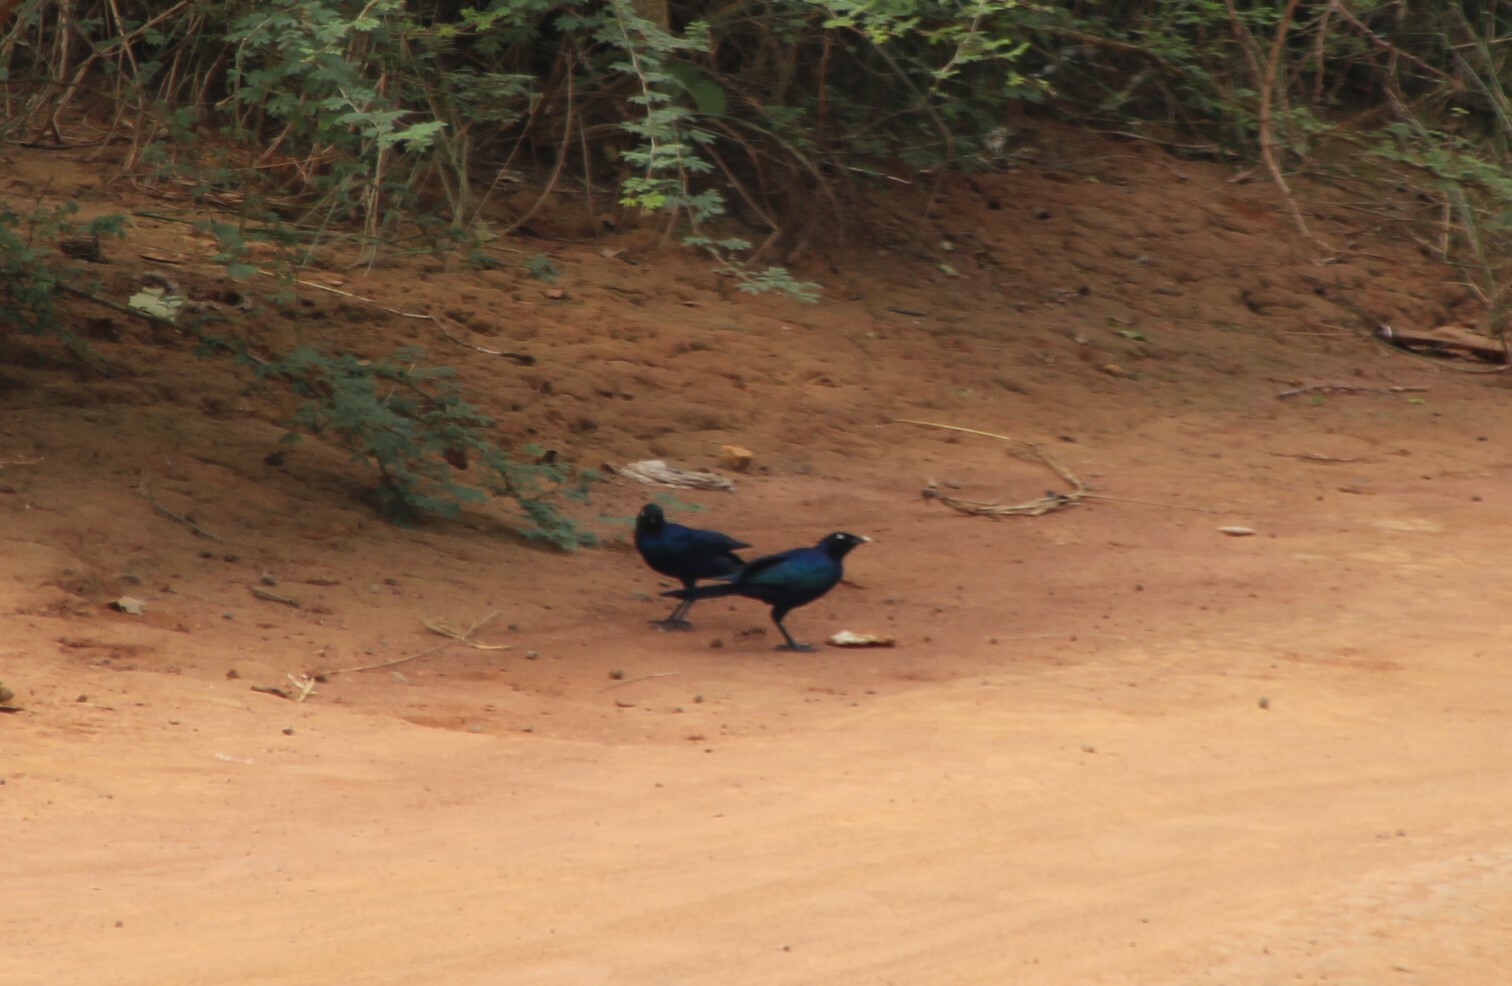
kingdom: Animalia
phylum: Chordata
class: Aves
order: Passeriformes
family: Sturnidae
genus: Lamprotornis
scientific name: Lamprotornis purpuroptera
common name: Rüppell's starling
